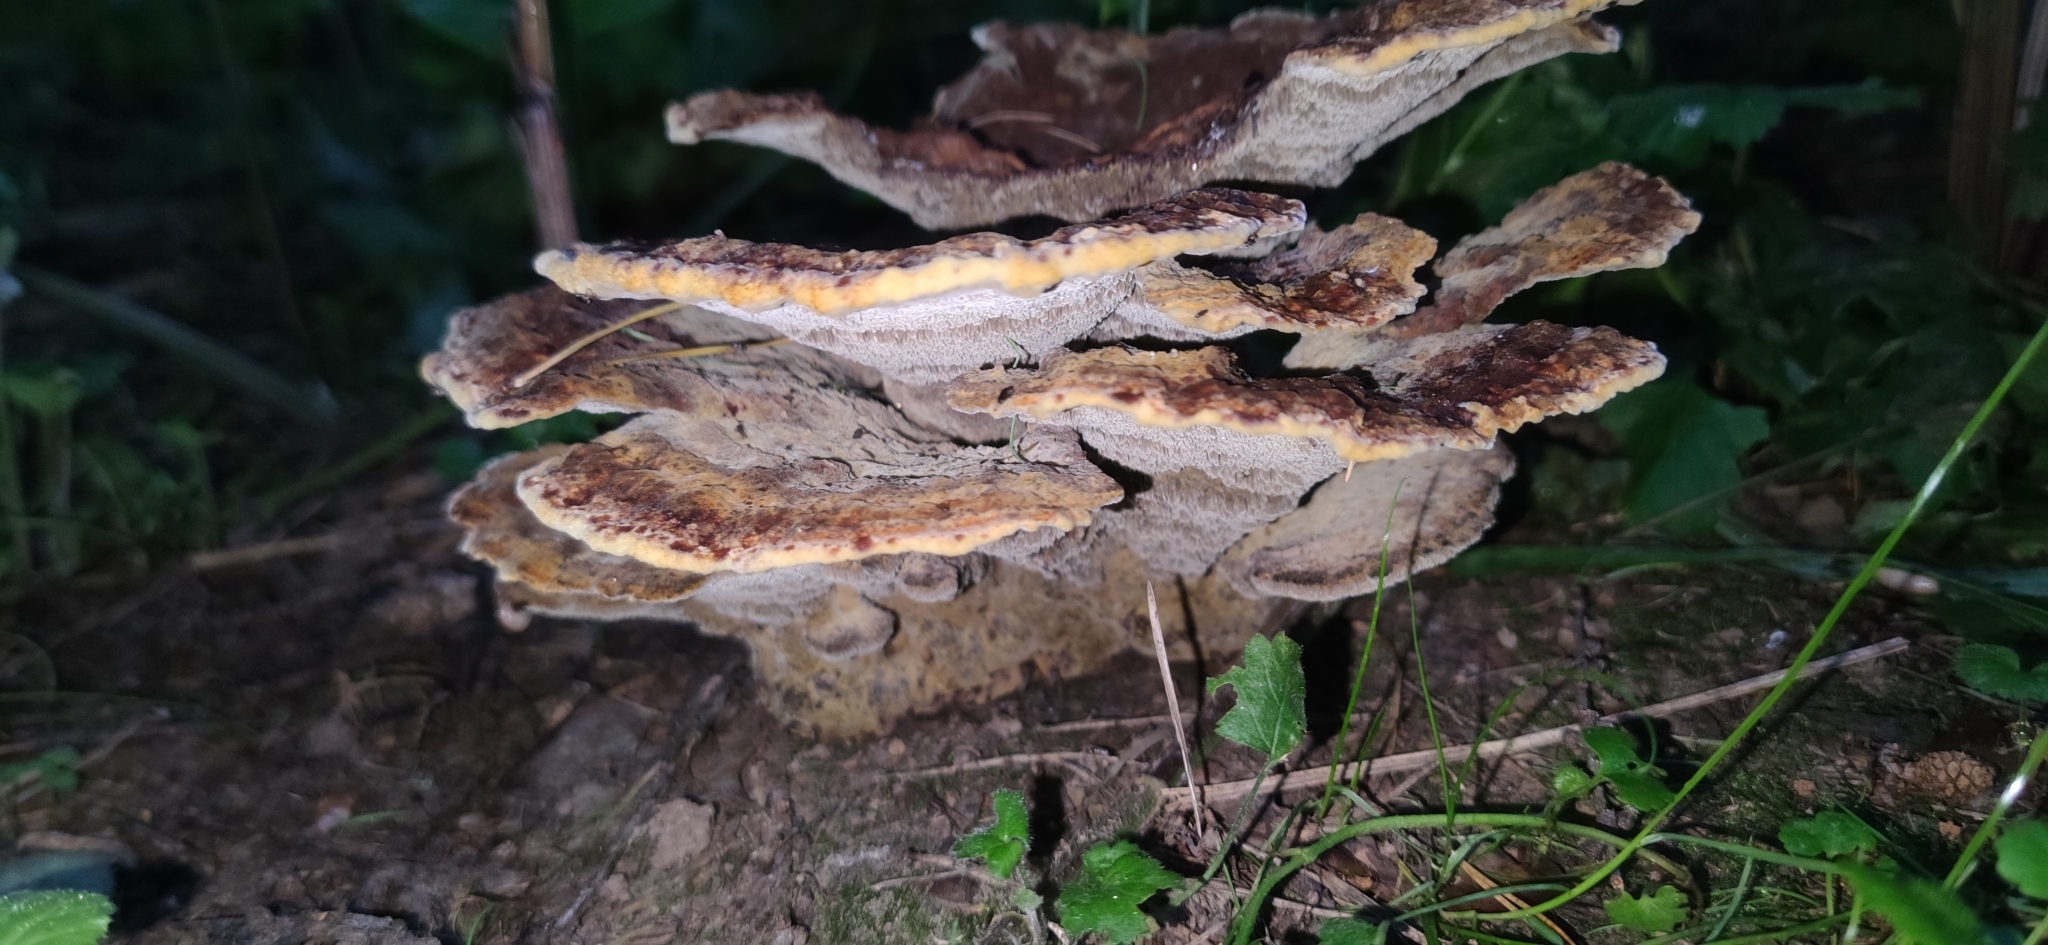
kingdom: Fungi
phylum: Basidiomycota
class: Agaricomycetes
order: Polyporales
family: Laetiporaceae
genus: Phaeolus
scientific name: Phaeolus schweinitzii
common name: Dyer's mazegill
